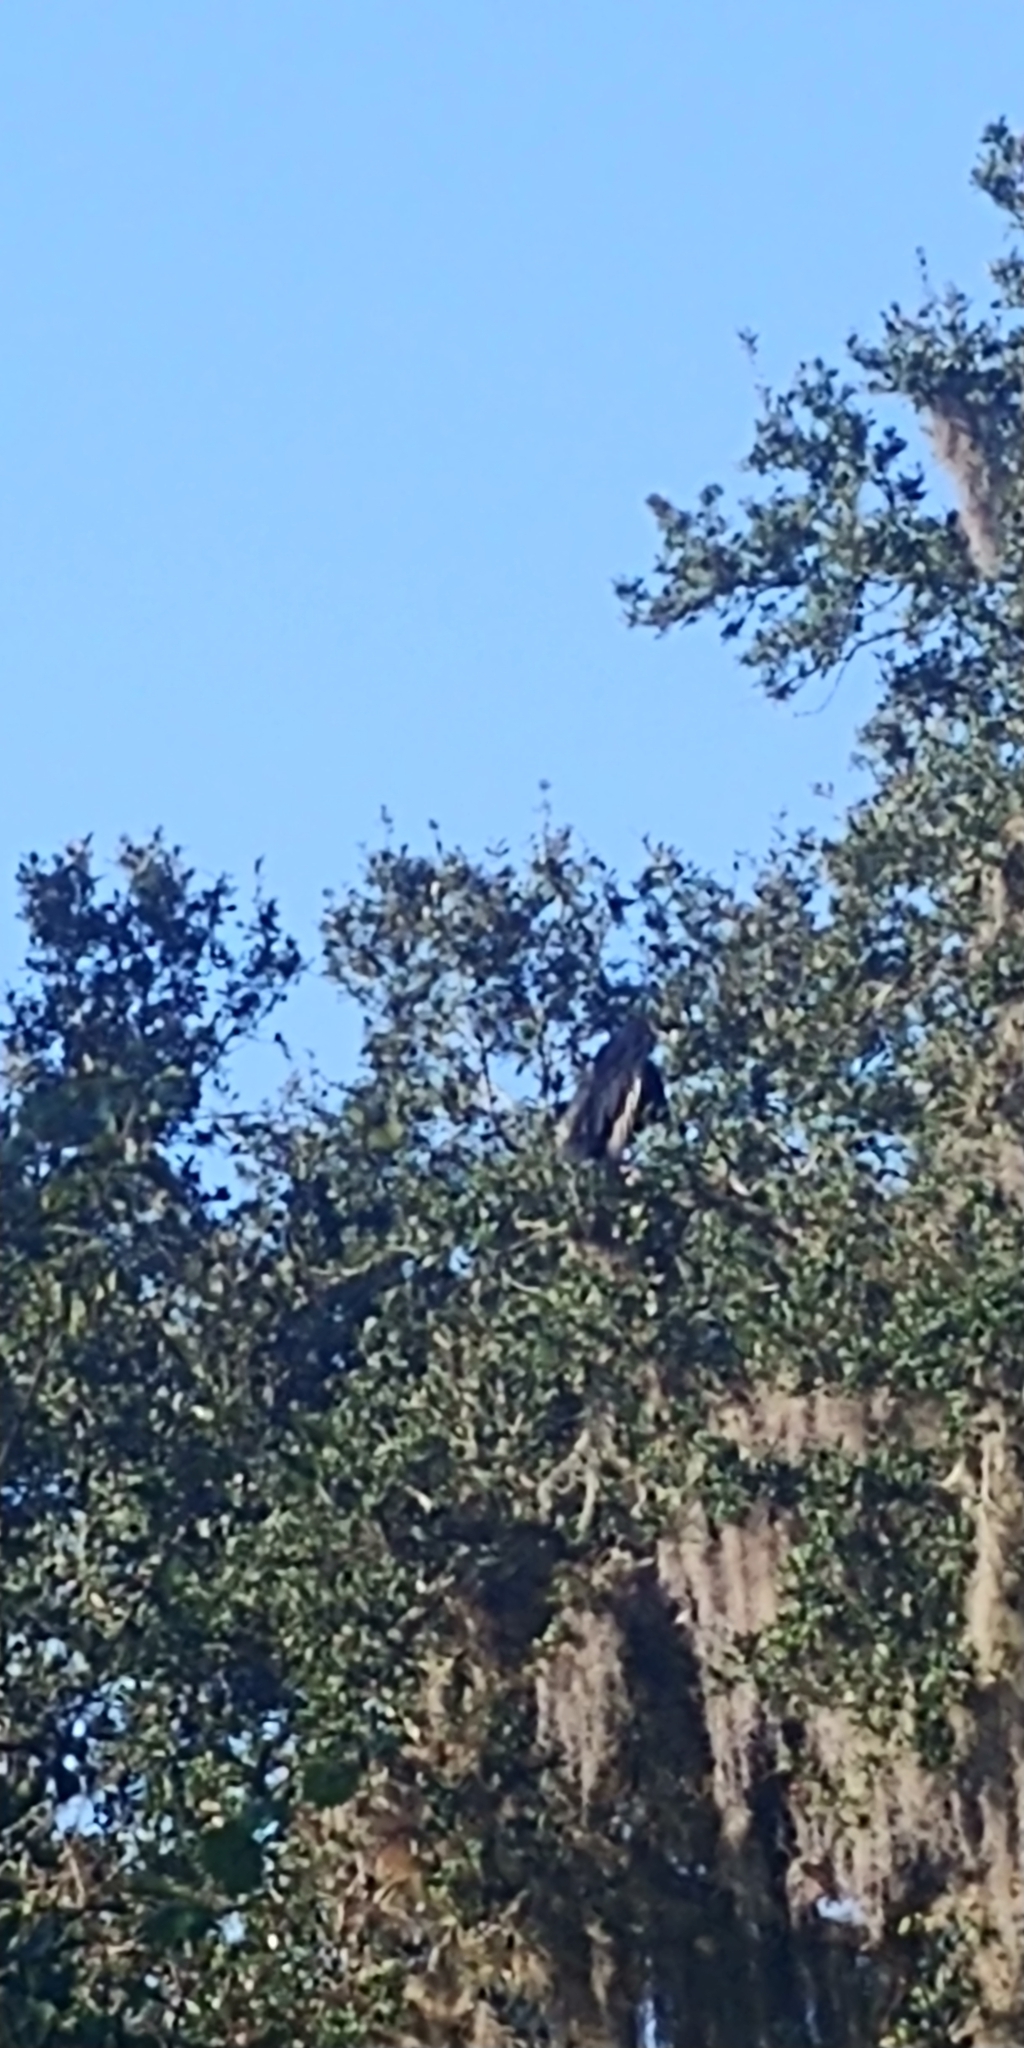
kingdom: Animalia
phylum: Chordata
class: Aves
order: Accipitriformes
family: Cathartidae
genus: Coragyps
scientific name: Coragyps atratus
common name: Black vulture
